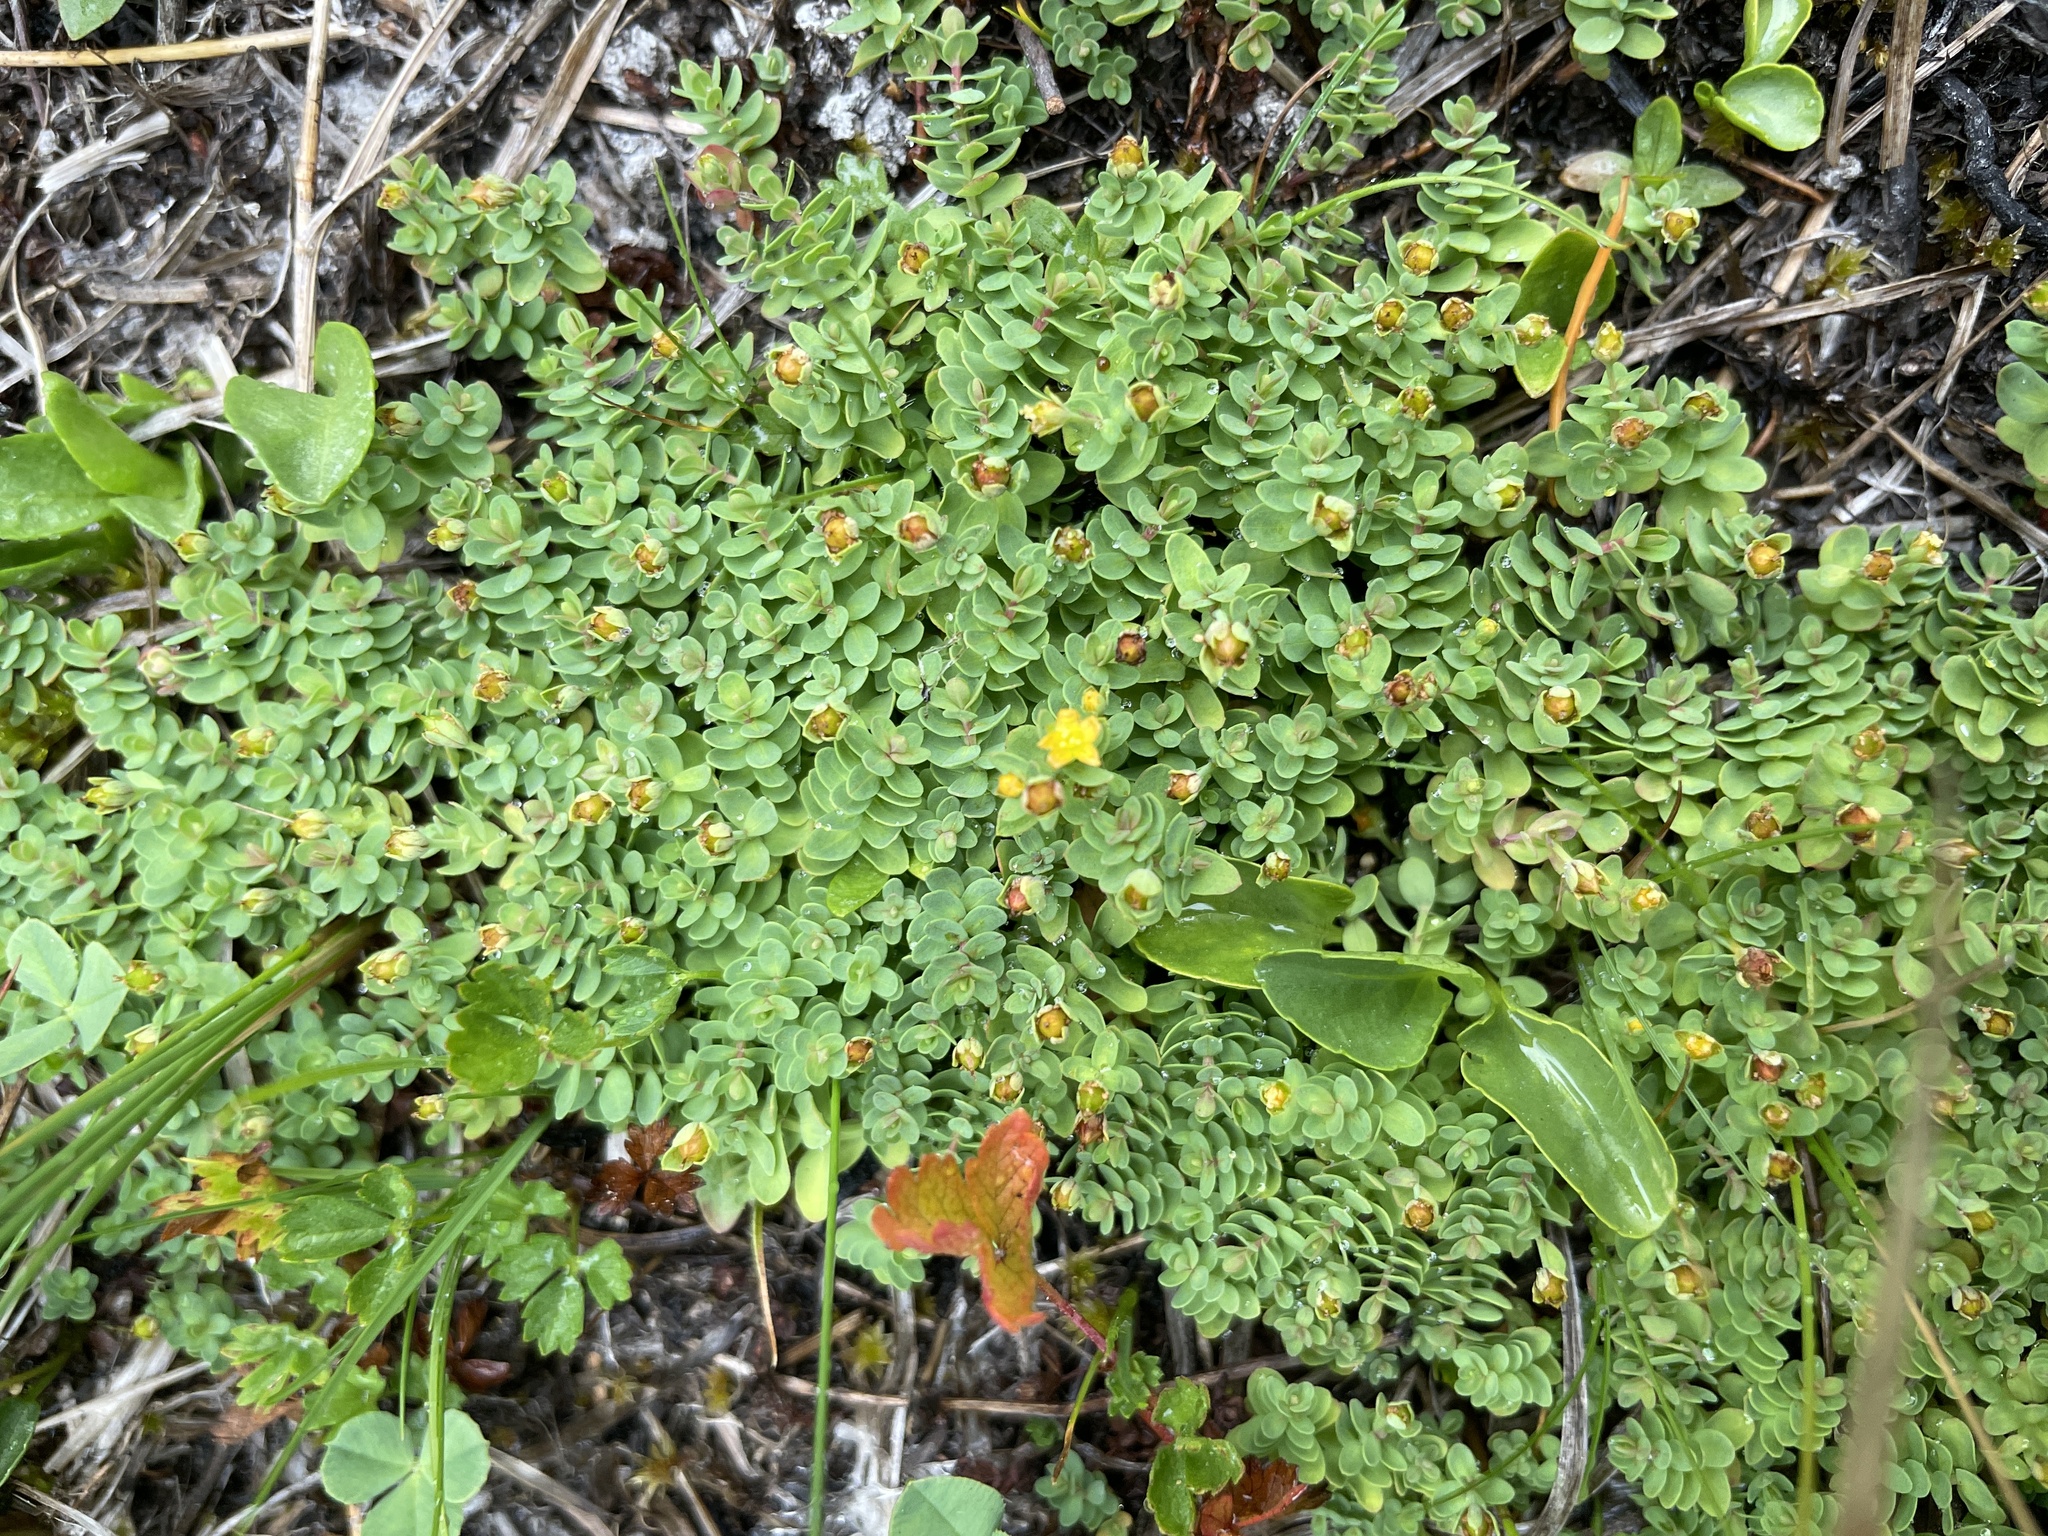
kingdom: Plantae
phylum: Tracheophyta
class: Magnoliopsida
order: Malpighiales
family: Hypericaceae
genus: Hypericum
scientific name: Hypericum anagalloides
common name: Bog st. john's-wort
